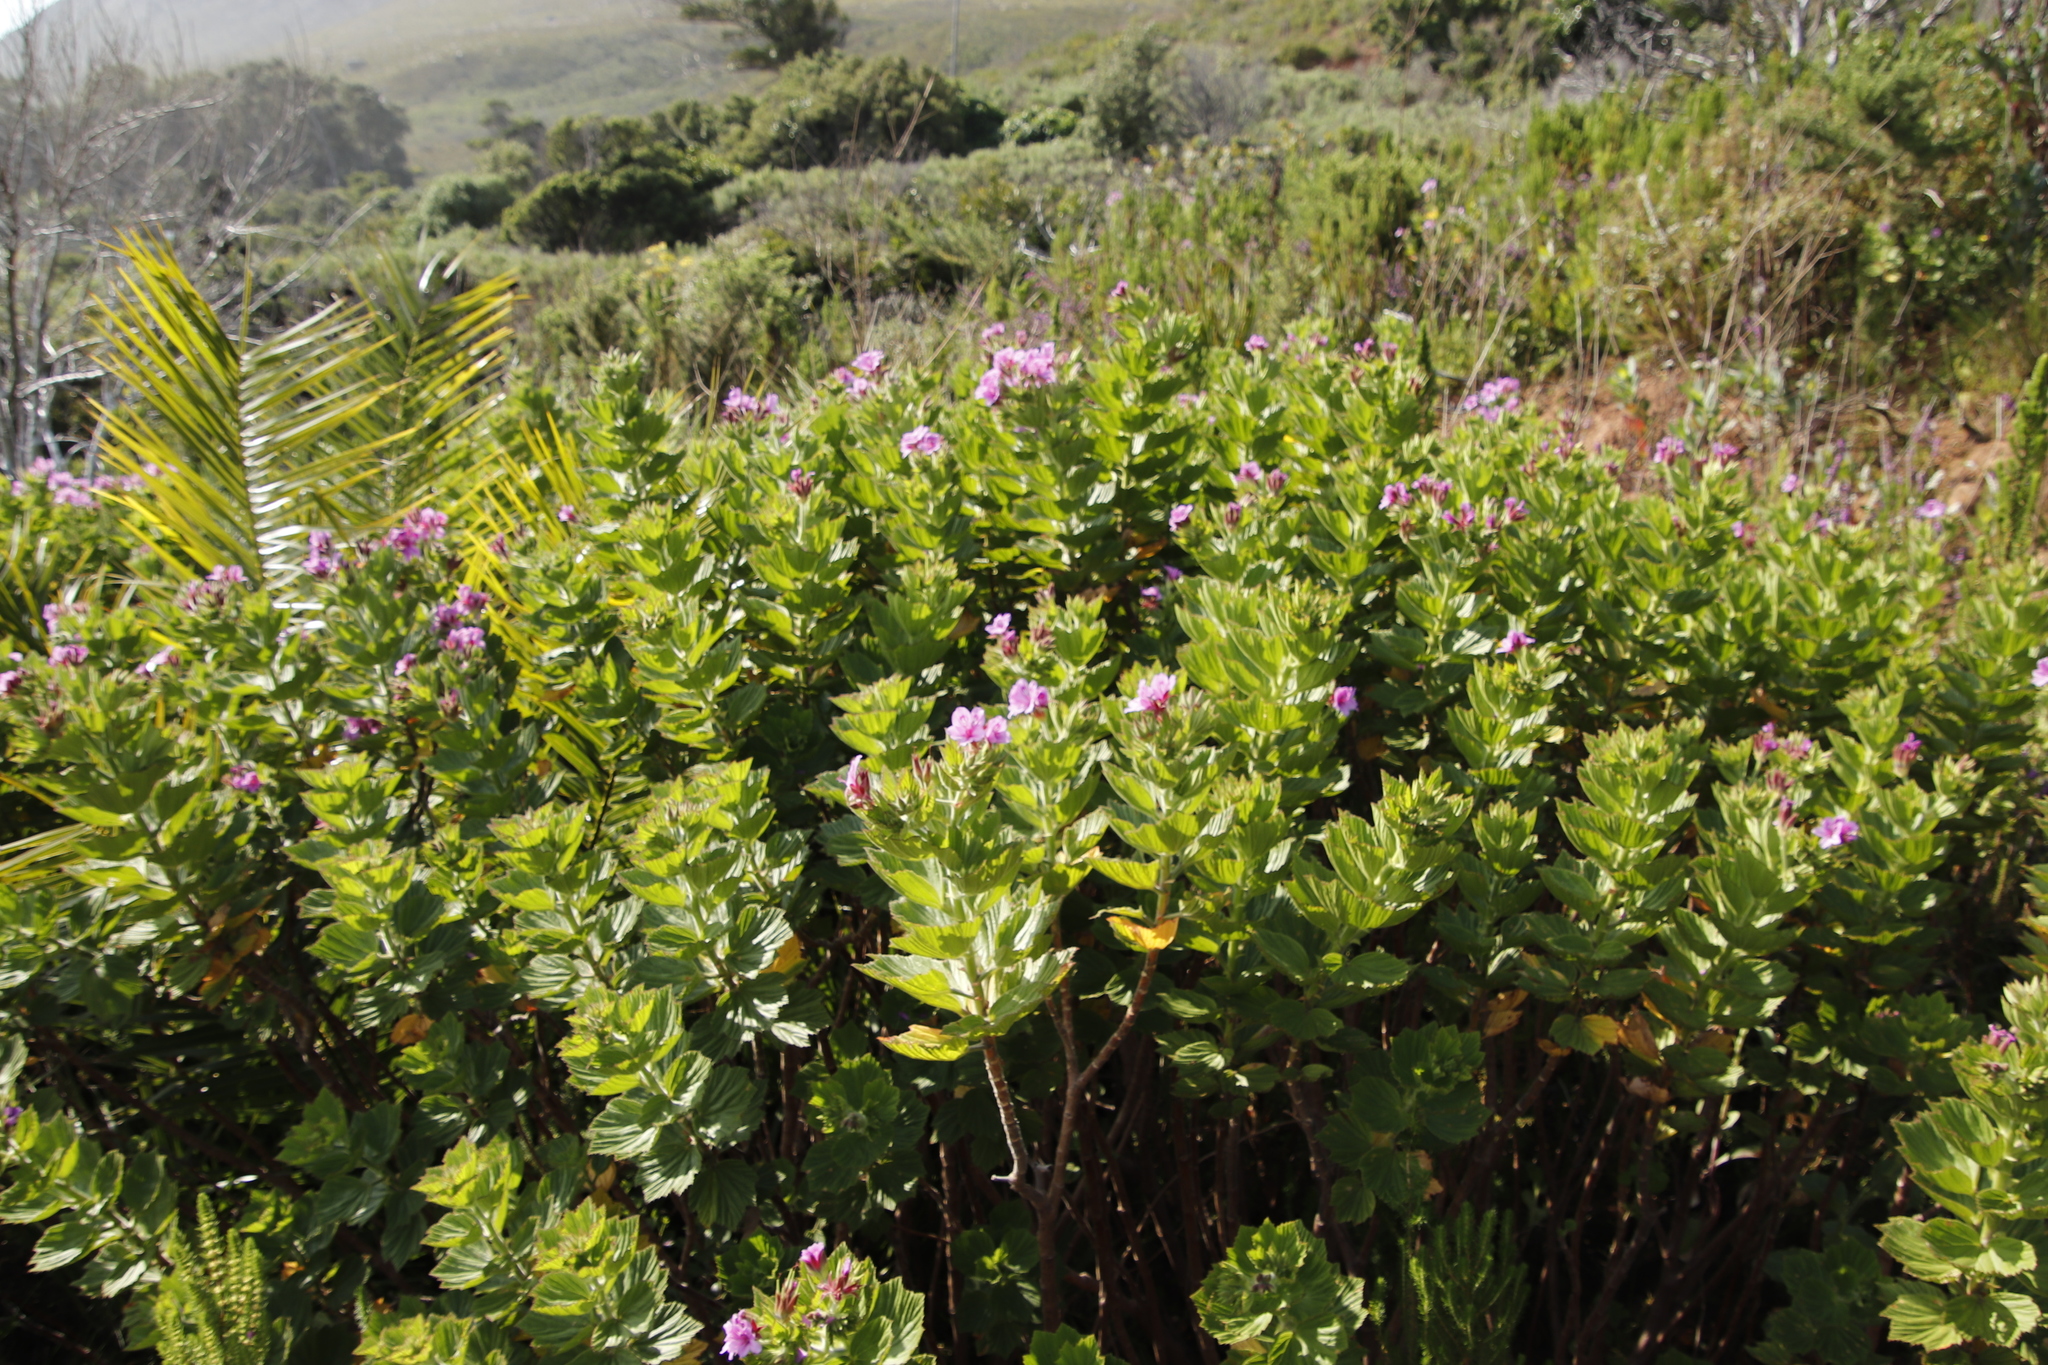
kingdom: Plantae
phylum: Tracheophyta
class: Magnoliopsida
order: Geraniales
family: Geraniaceae
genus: Pelargonium
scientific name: Pelargonium cucullatum
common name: Tree pelargonium
